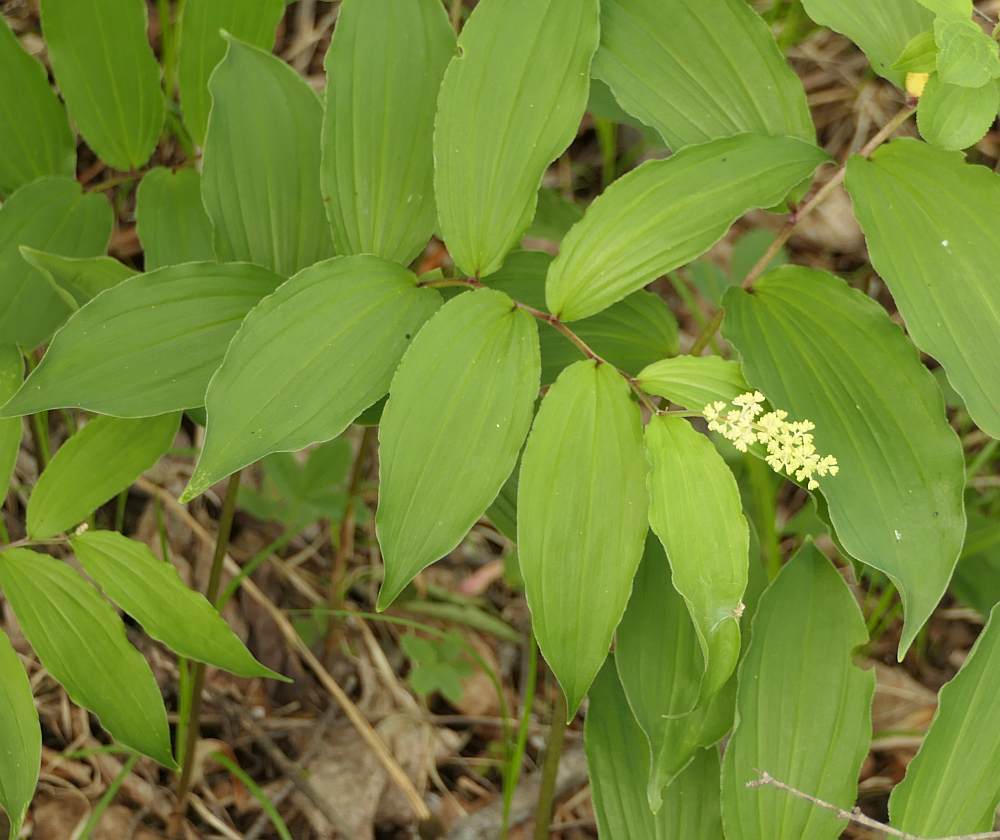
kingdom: Plantae
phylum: Tracheophyta
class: Liliopsida
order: Asparagales
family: Asparagaceae
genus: Maianthemum
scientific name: Maianthemum racemosum
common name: False spikenard
